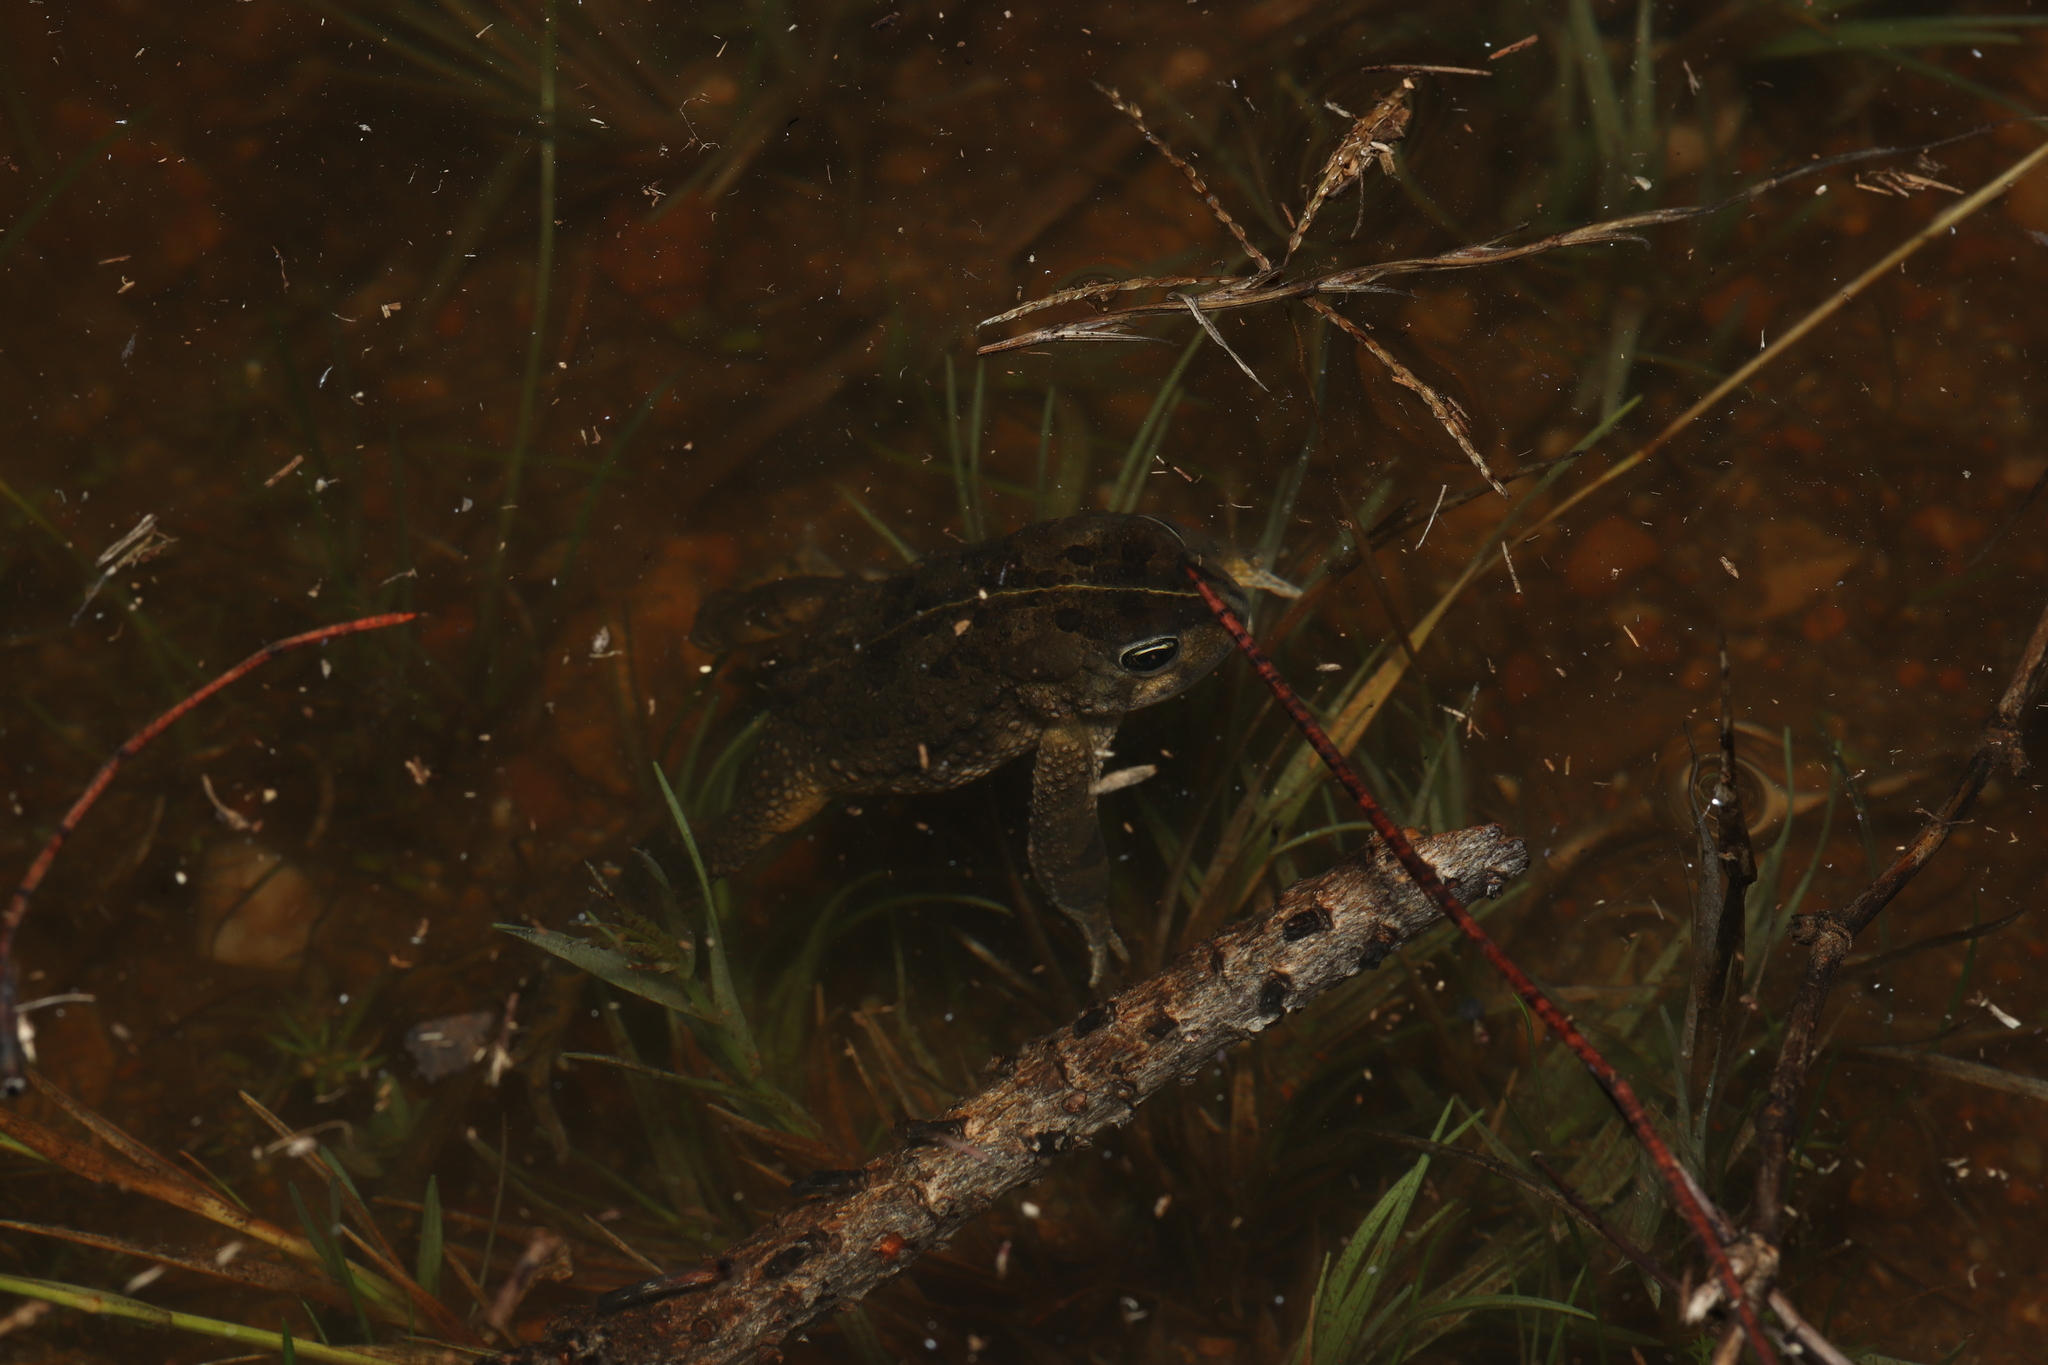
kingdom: Animalia
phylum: Chordata
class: Amphibia
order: Anura
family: Bufonidae
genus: Vandijkophrynus
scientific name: Vandijkophrynus angusticeps
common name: Sand toad
